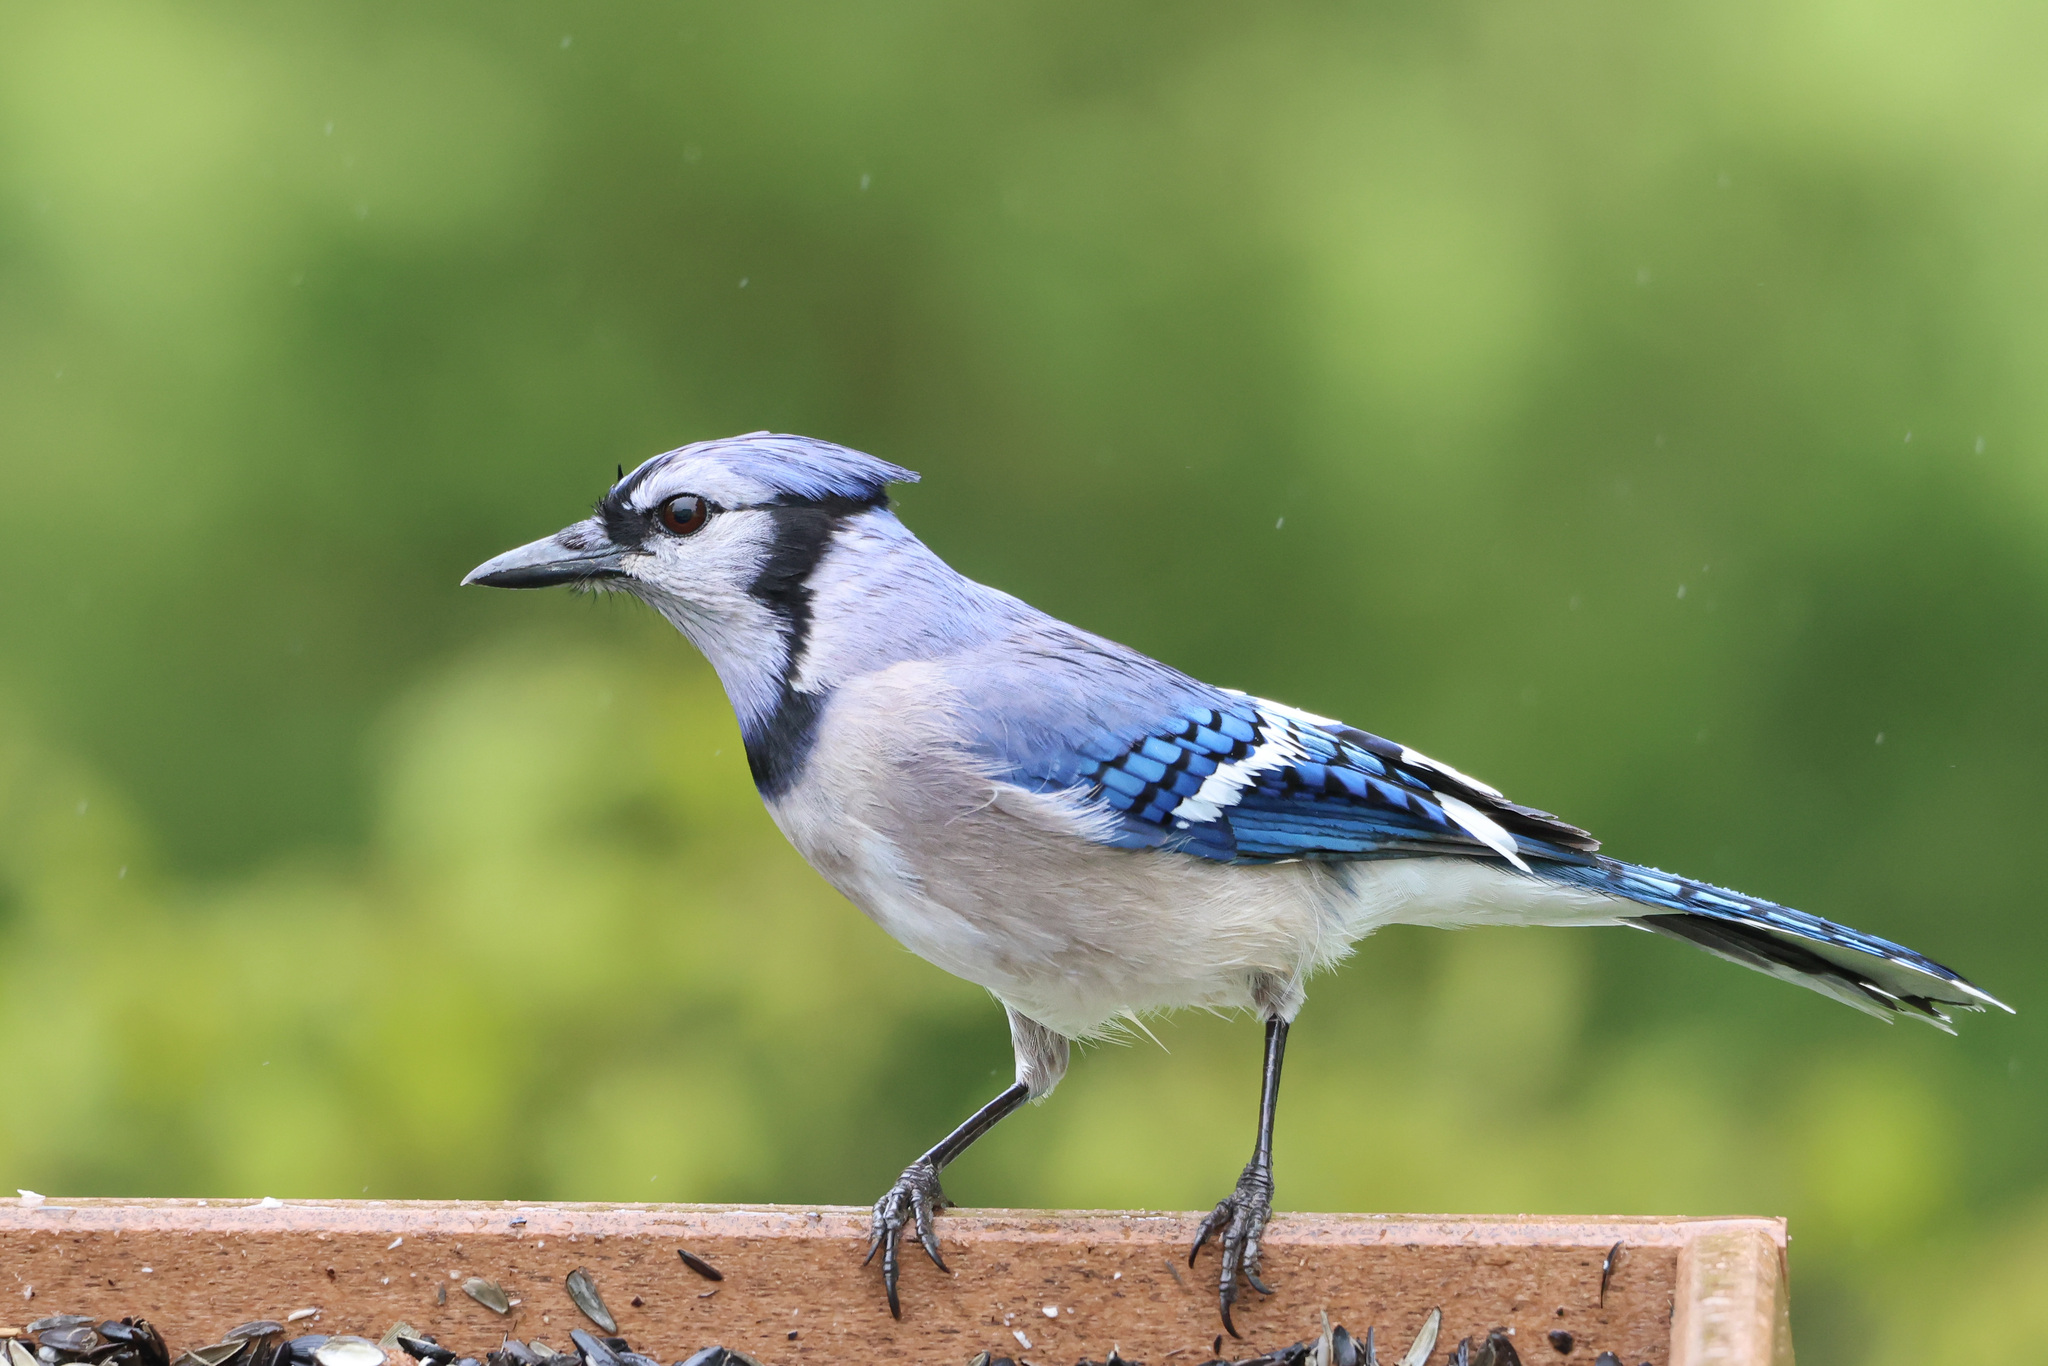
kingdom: Animalia
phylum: Chordata
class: Aves
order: Passeriformes
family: Corvidae
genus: Cyanocitta
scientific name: Cyanocitta cristata
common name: Blue jay
